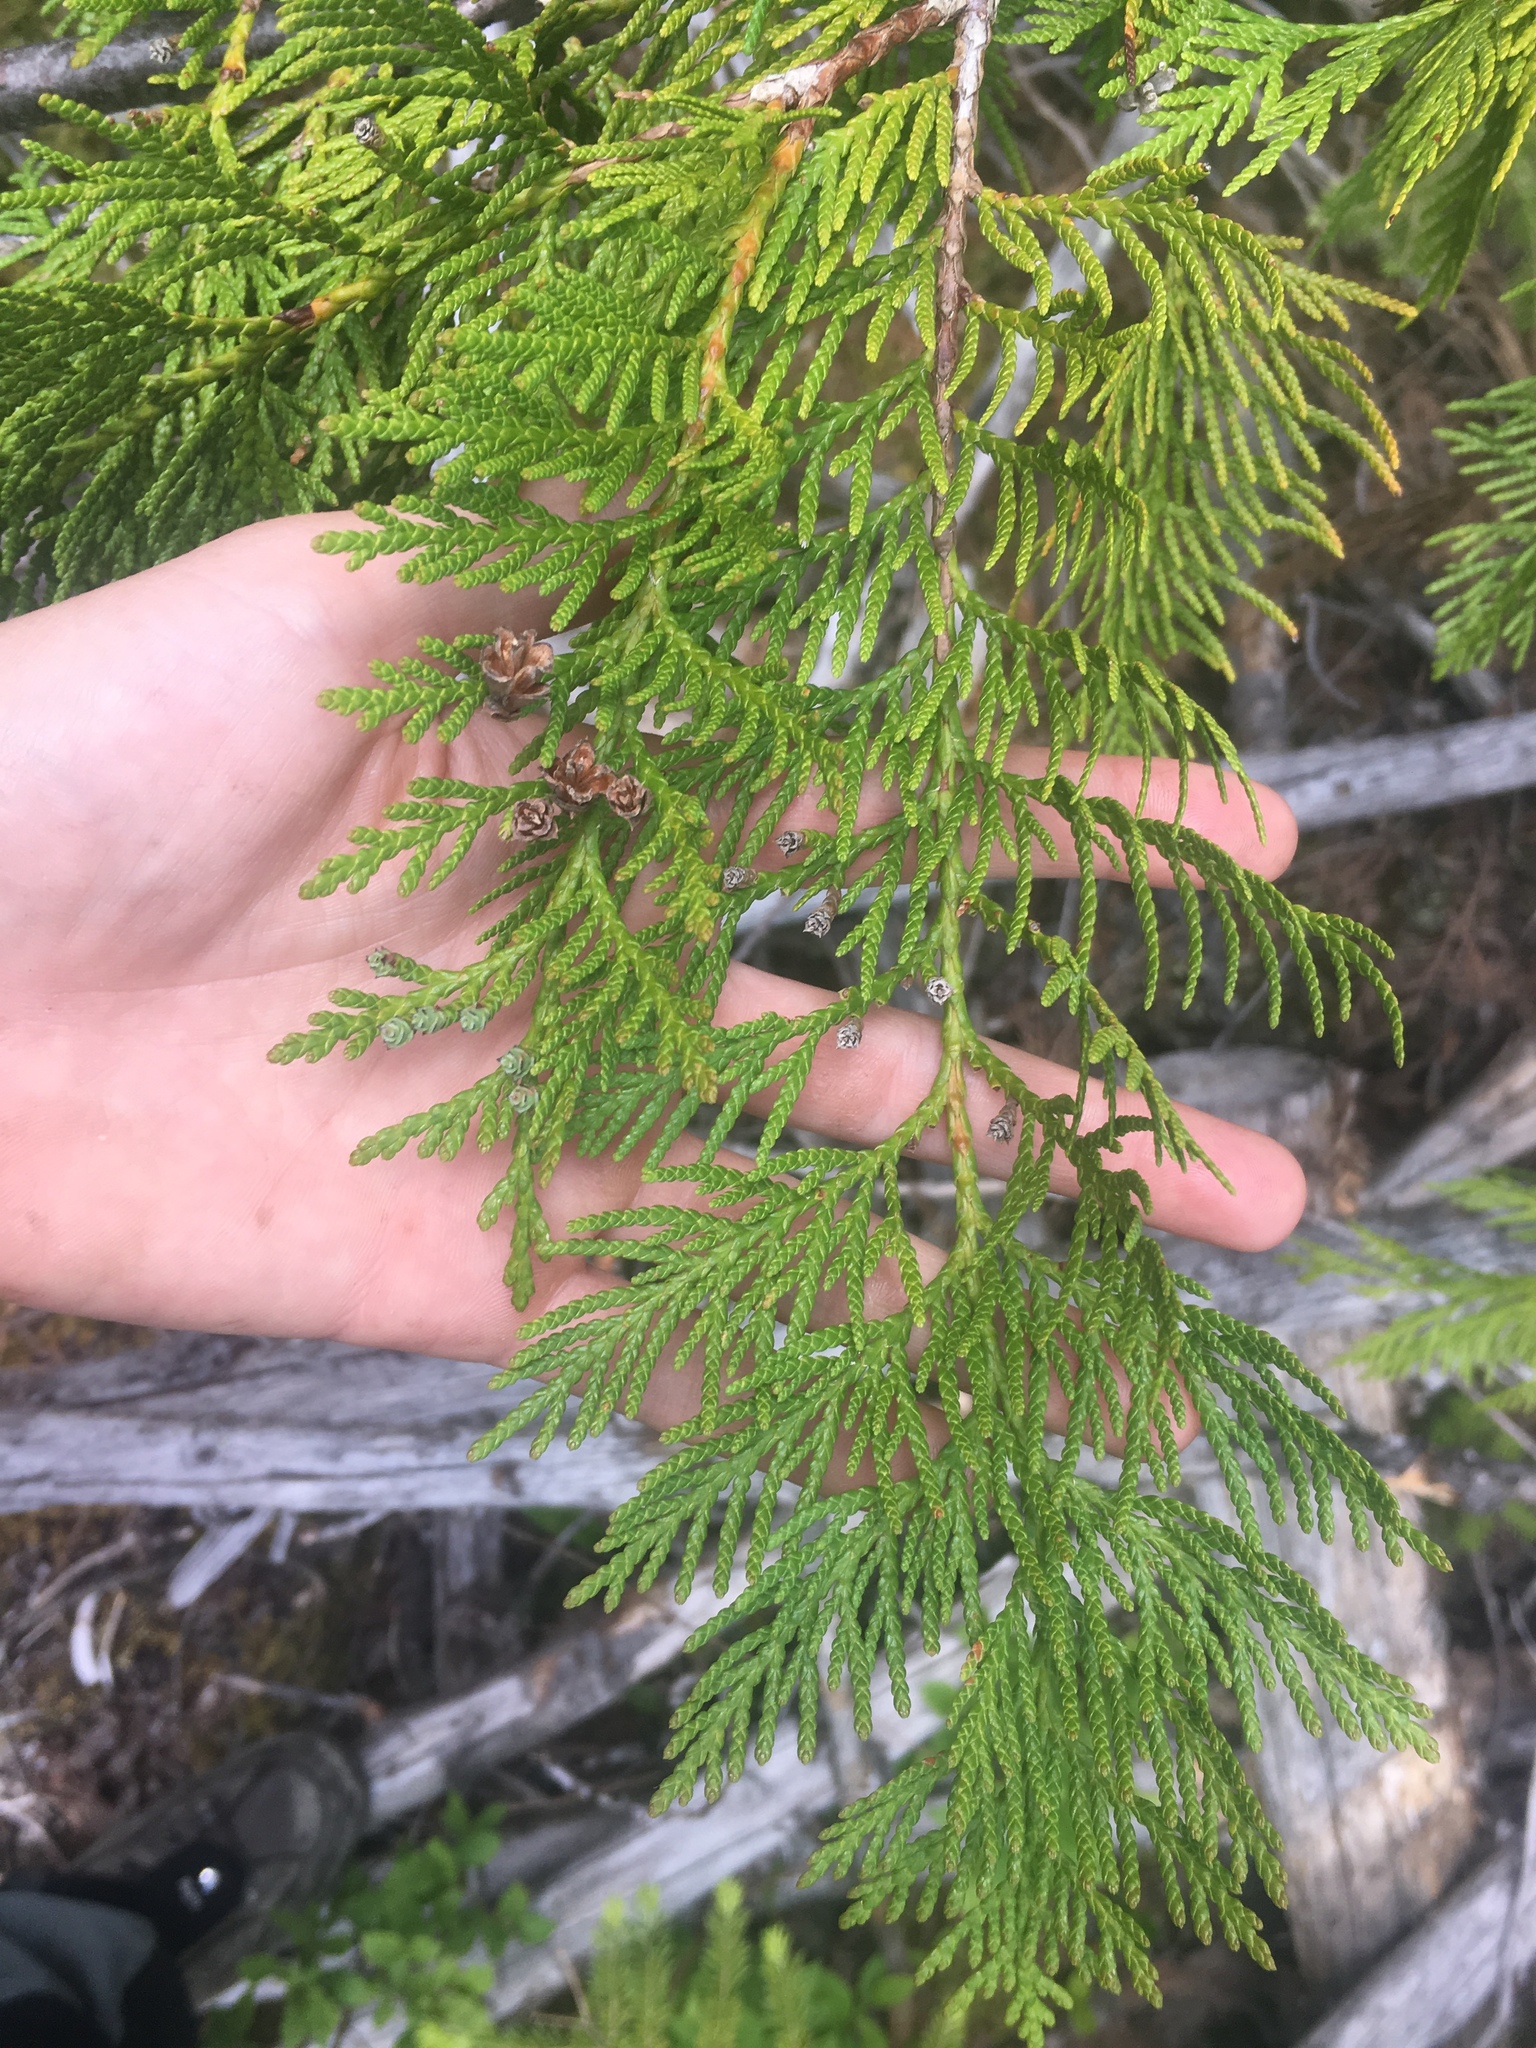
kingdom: Plantae
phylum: Tracheophyta
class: Pinopsida
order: Pinales
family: Cupressaceae
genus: Thuja
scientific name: Thuja plicata
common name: Western red-cedar
